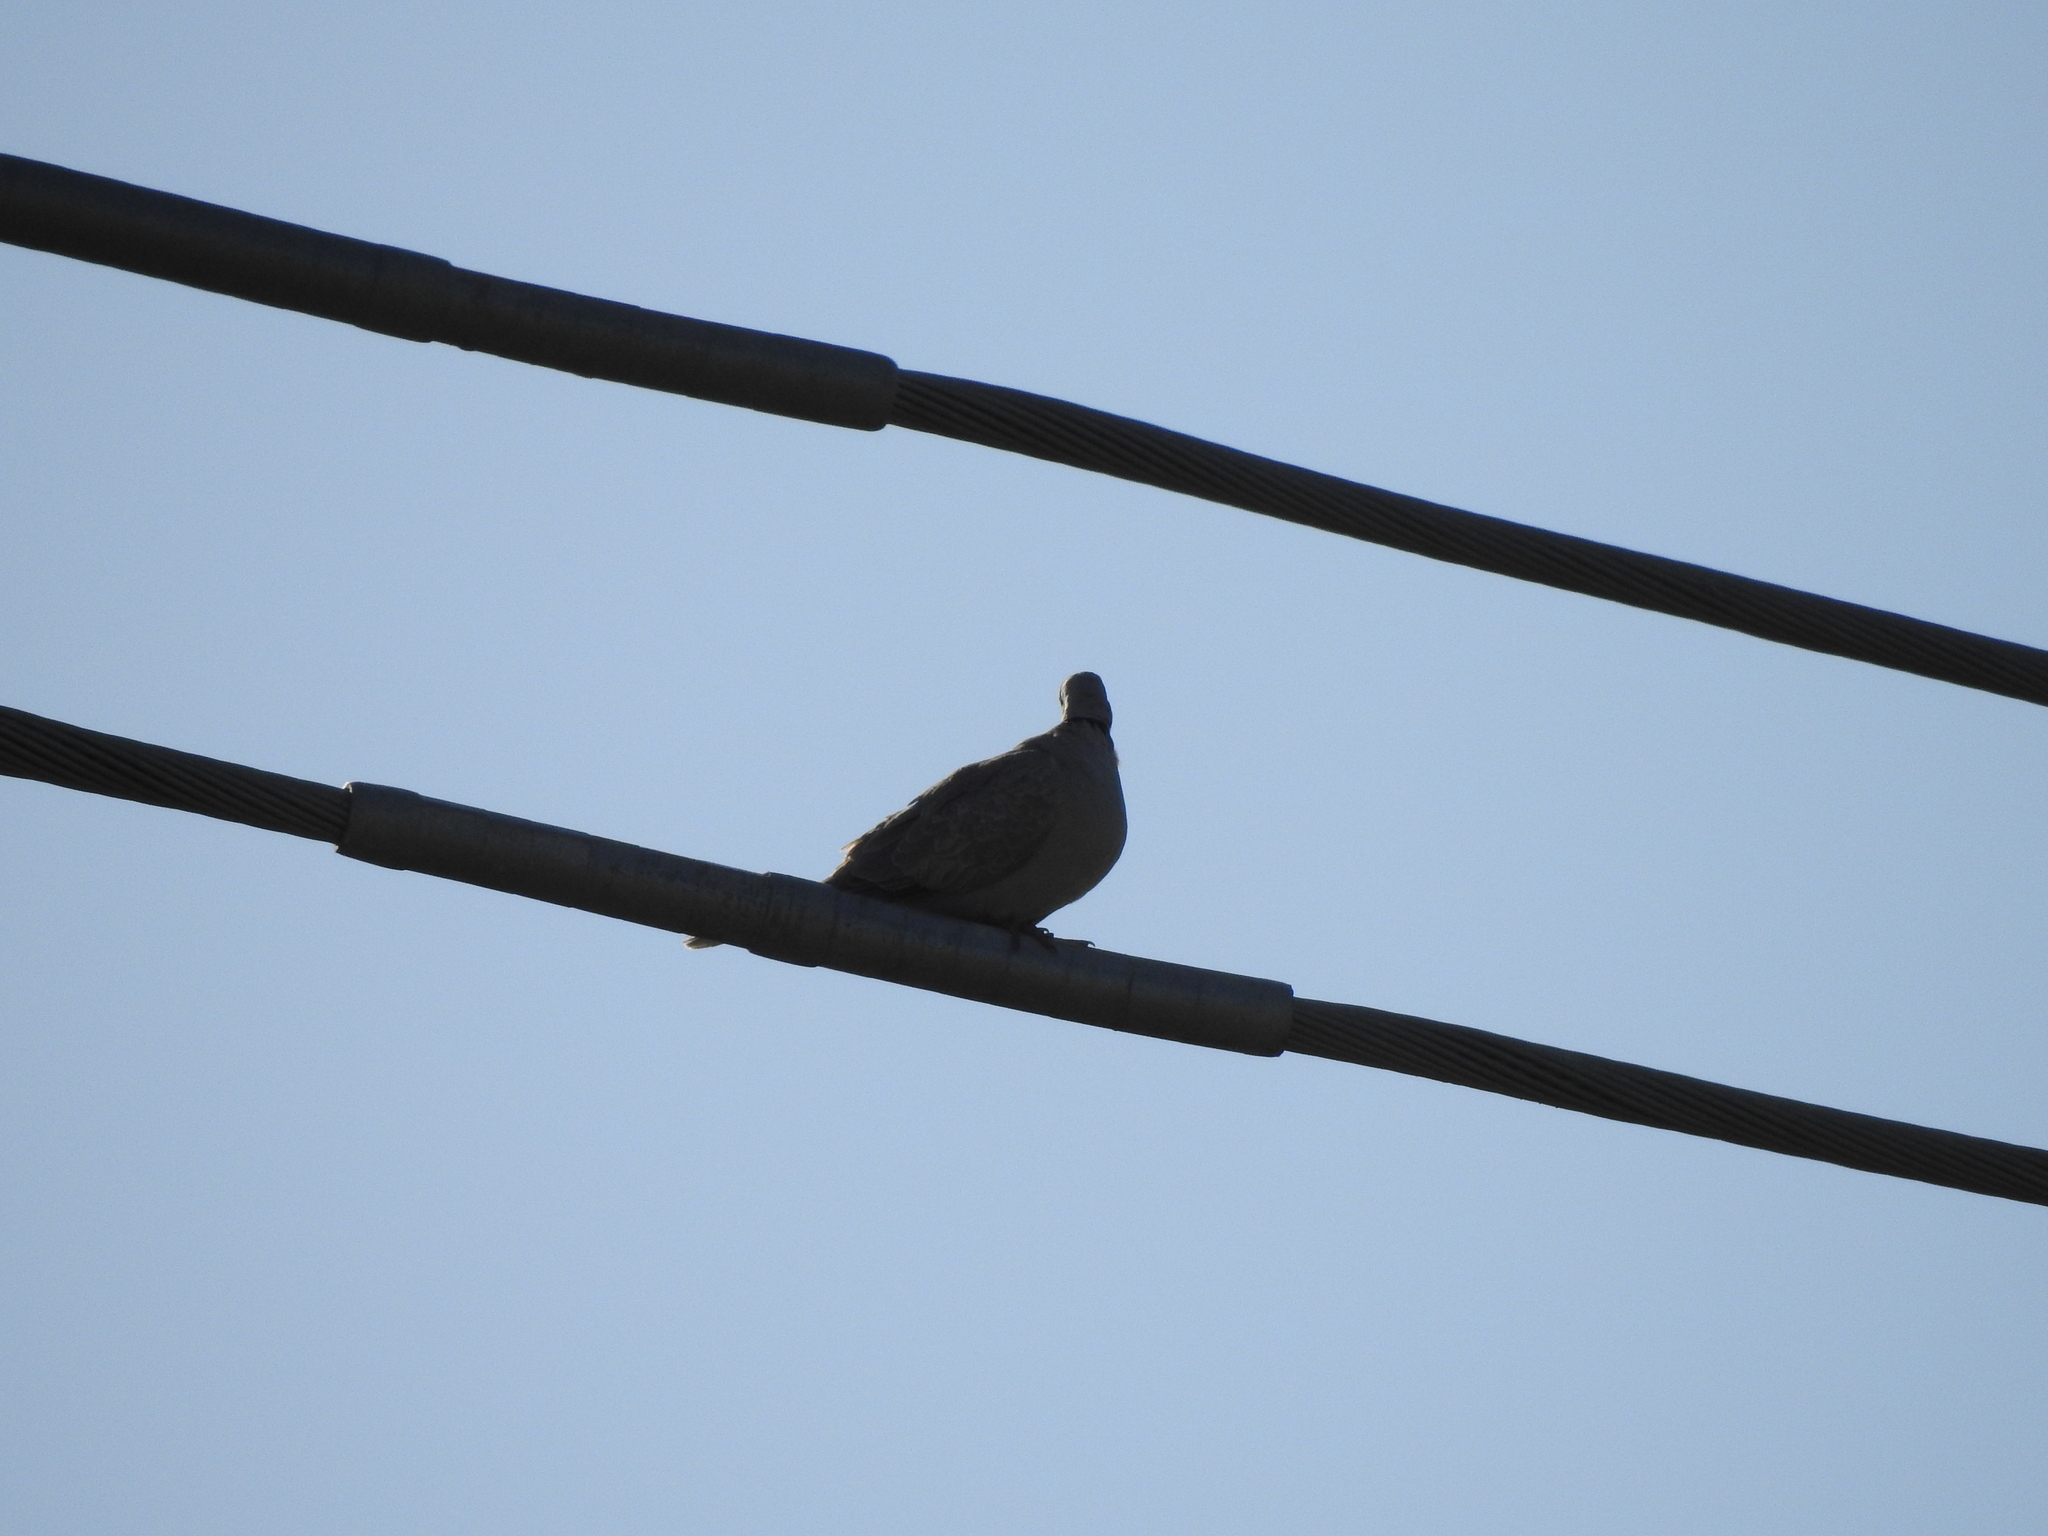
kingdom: Animalia
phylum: Chordata
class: Aves
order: Columbiformes
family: Columbidae
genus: Streptopelia
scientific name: Streptopelia decaocto
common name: Eurasian collared dove
